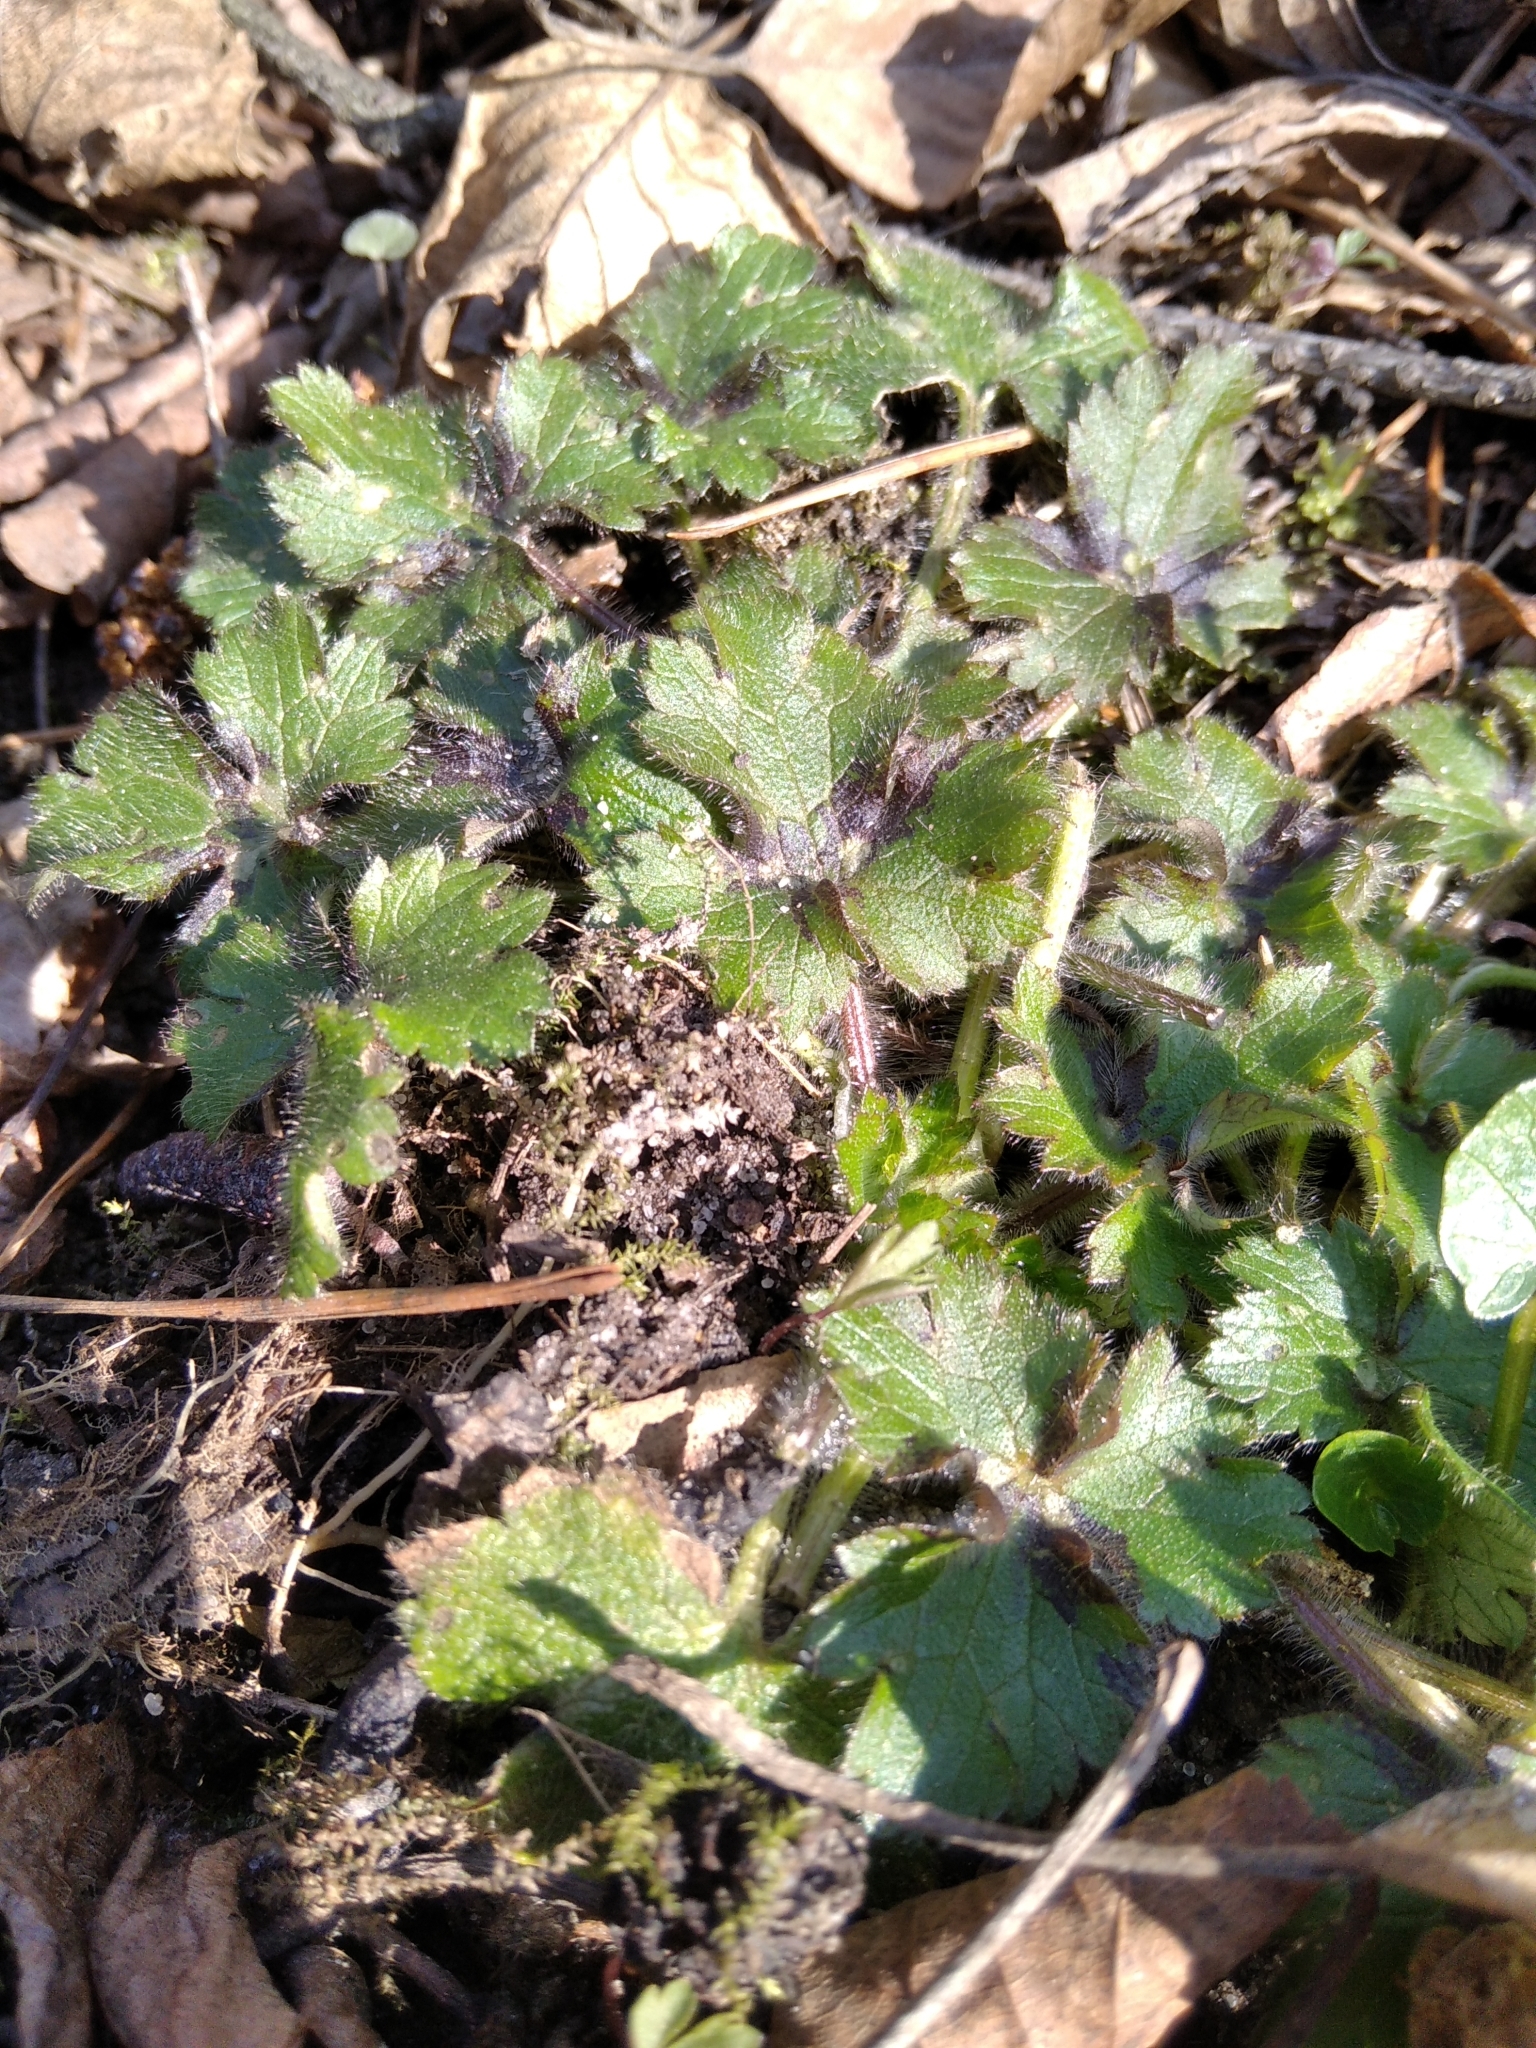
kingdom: Plantae
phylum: Tracheophyta
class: Magnoliopsida
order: Ranunculales
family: Ranunculaceae
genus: Ranunculus
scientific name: Ranunculus lanuginosus
